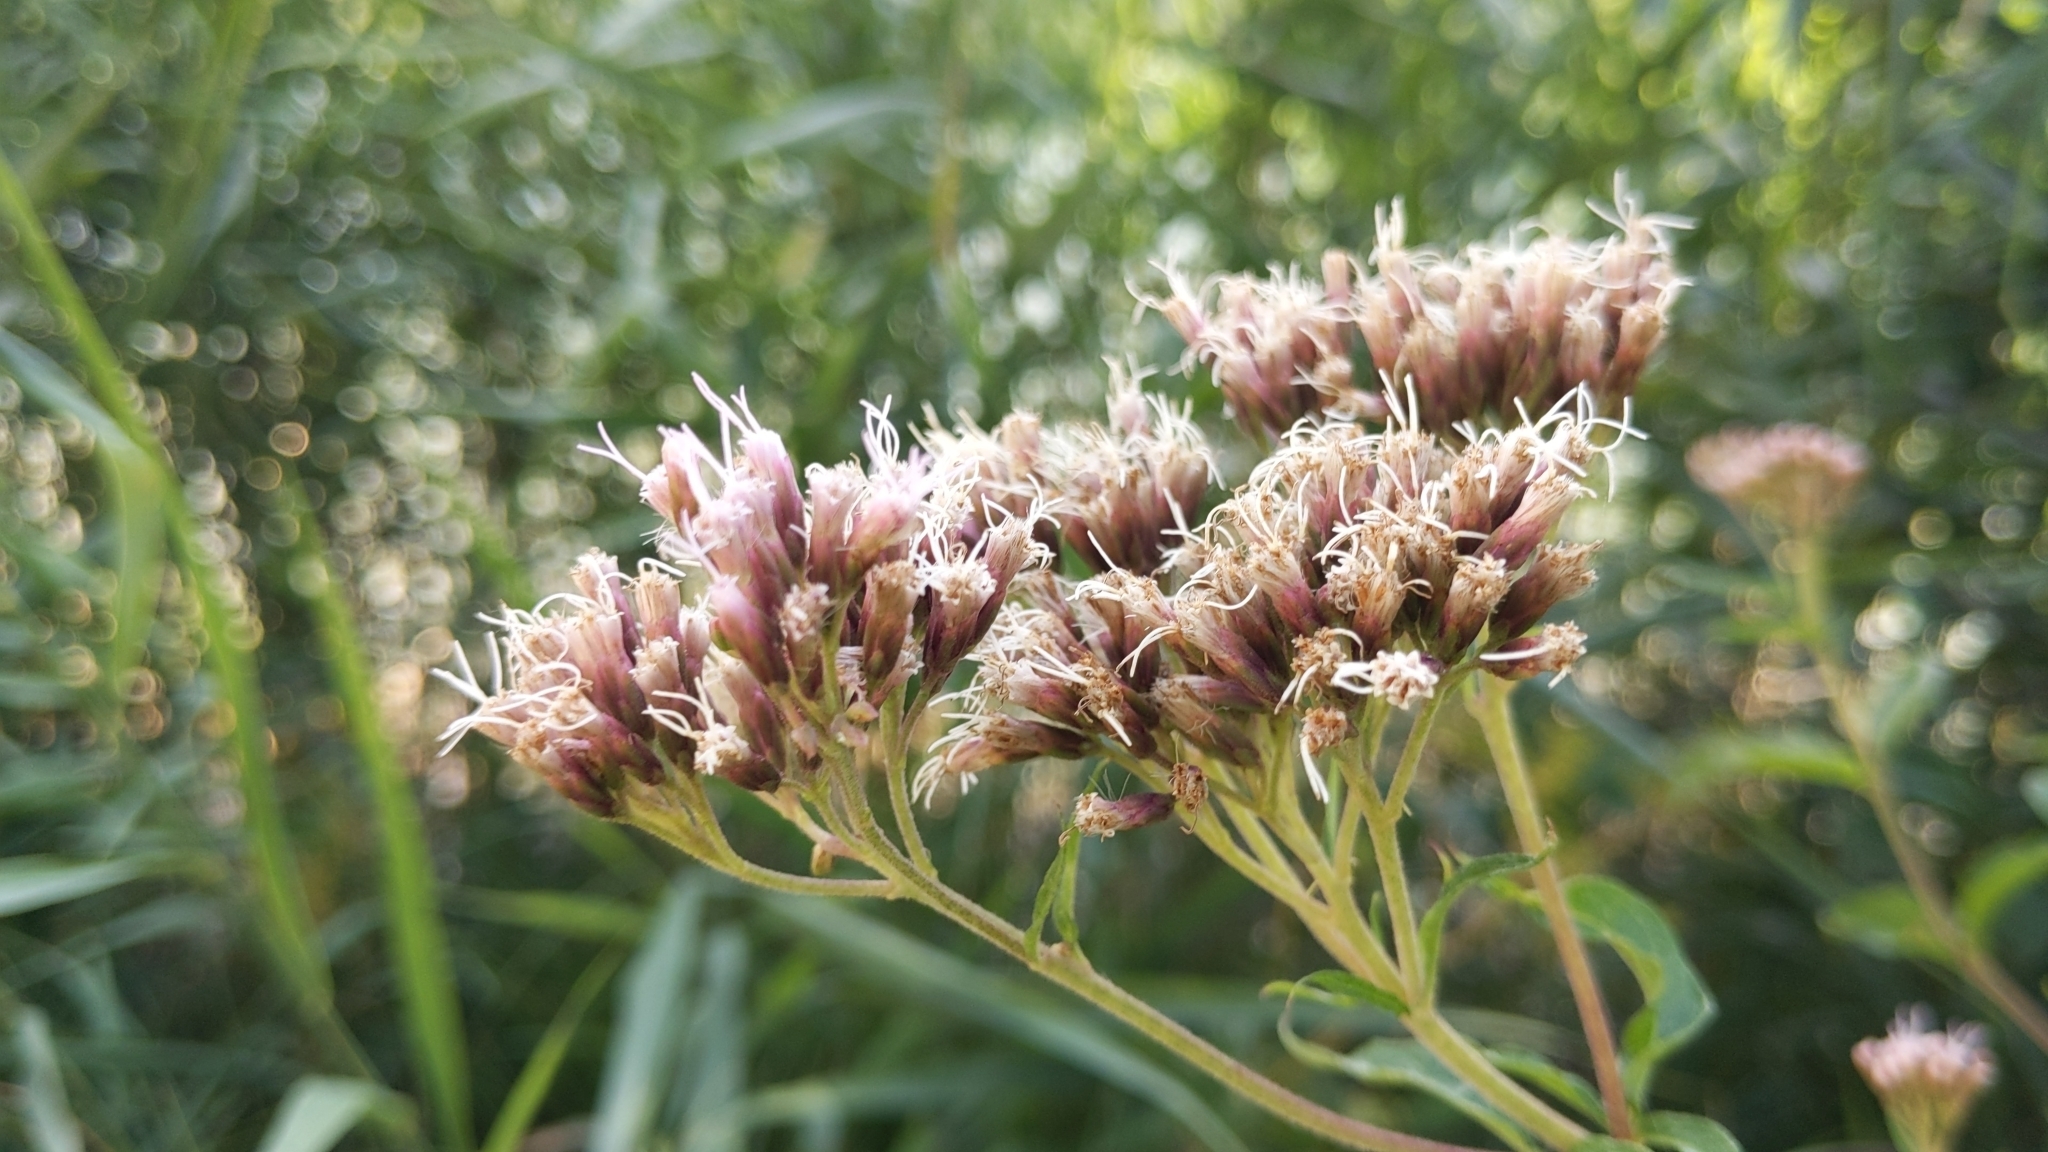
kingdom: Plantae
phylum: Tracheophyta
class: Magnoliopsida
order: Asterales
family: Asteraceae
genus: Eupatorium
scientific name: Eupatorium cannabinum
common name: Hemp-agrimony
